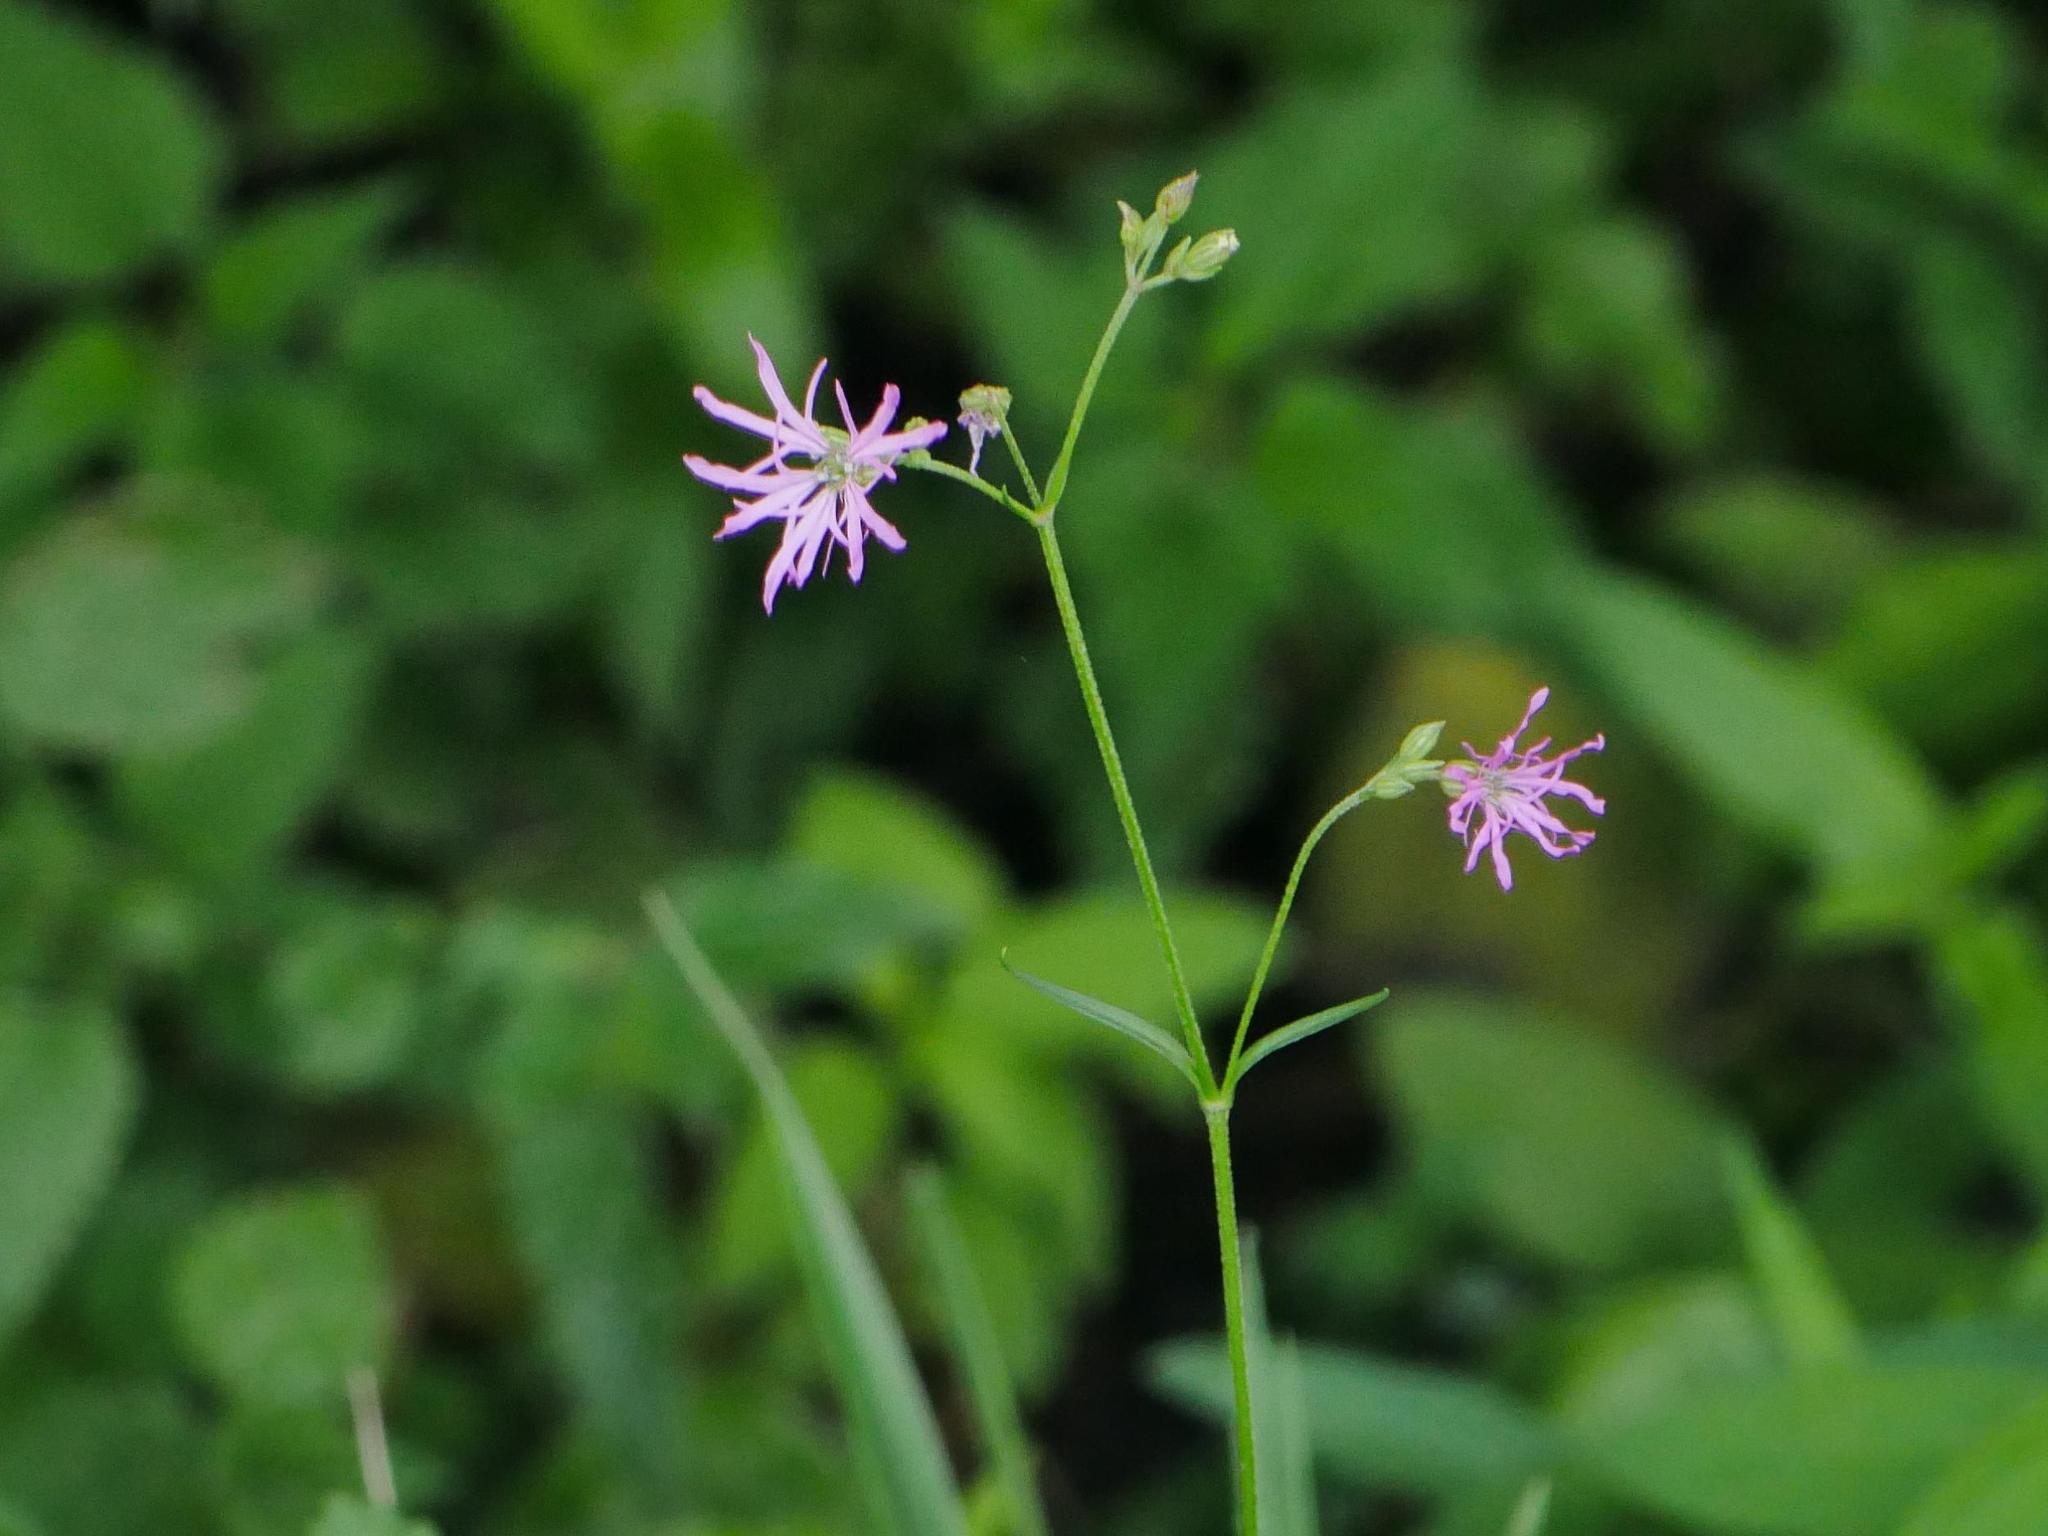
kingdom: Plantae
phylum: Tracheophyta
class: Magnoliopsida
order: Caryophyllales
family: Caryophyllaceae
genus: Silene
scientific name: Silene flos-cuculi
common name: Ragged-robin
